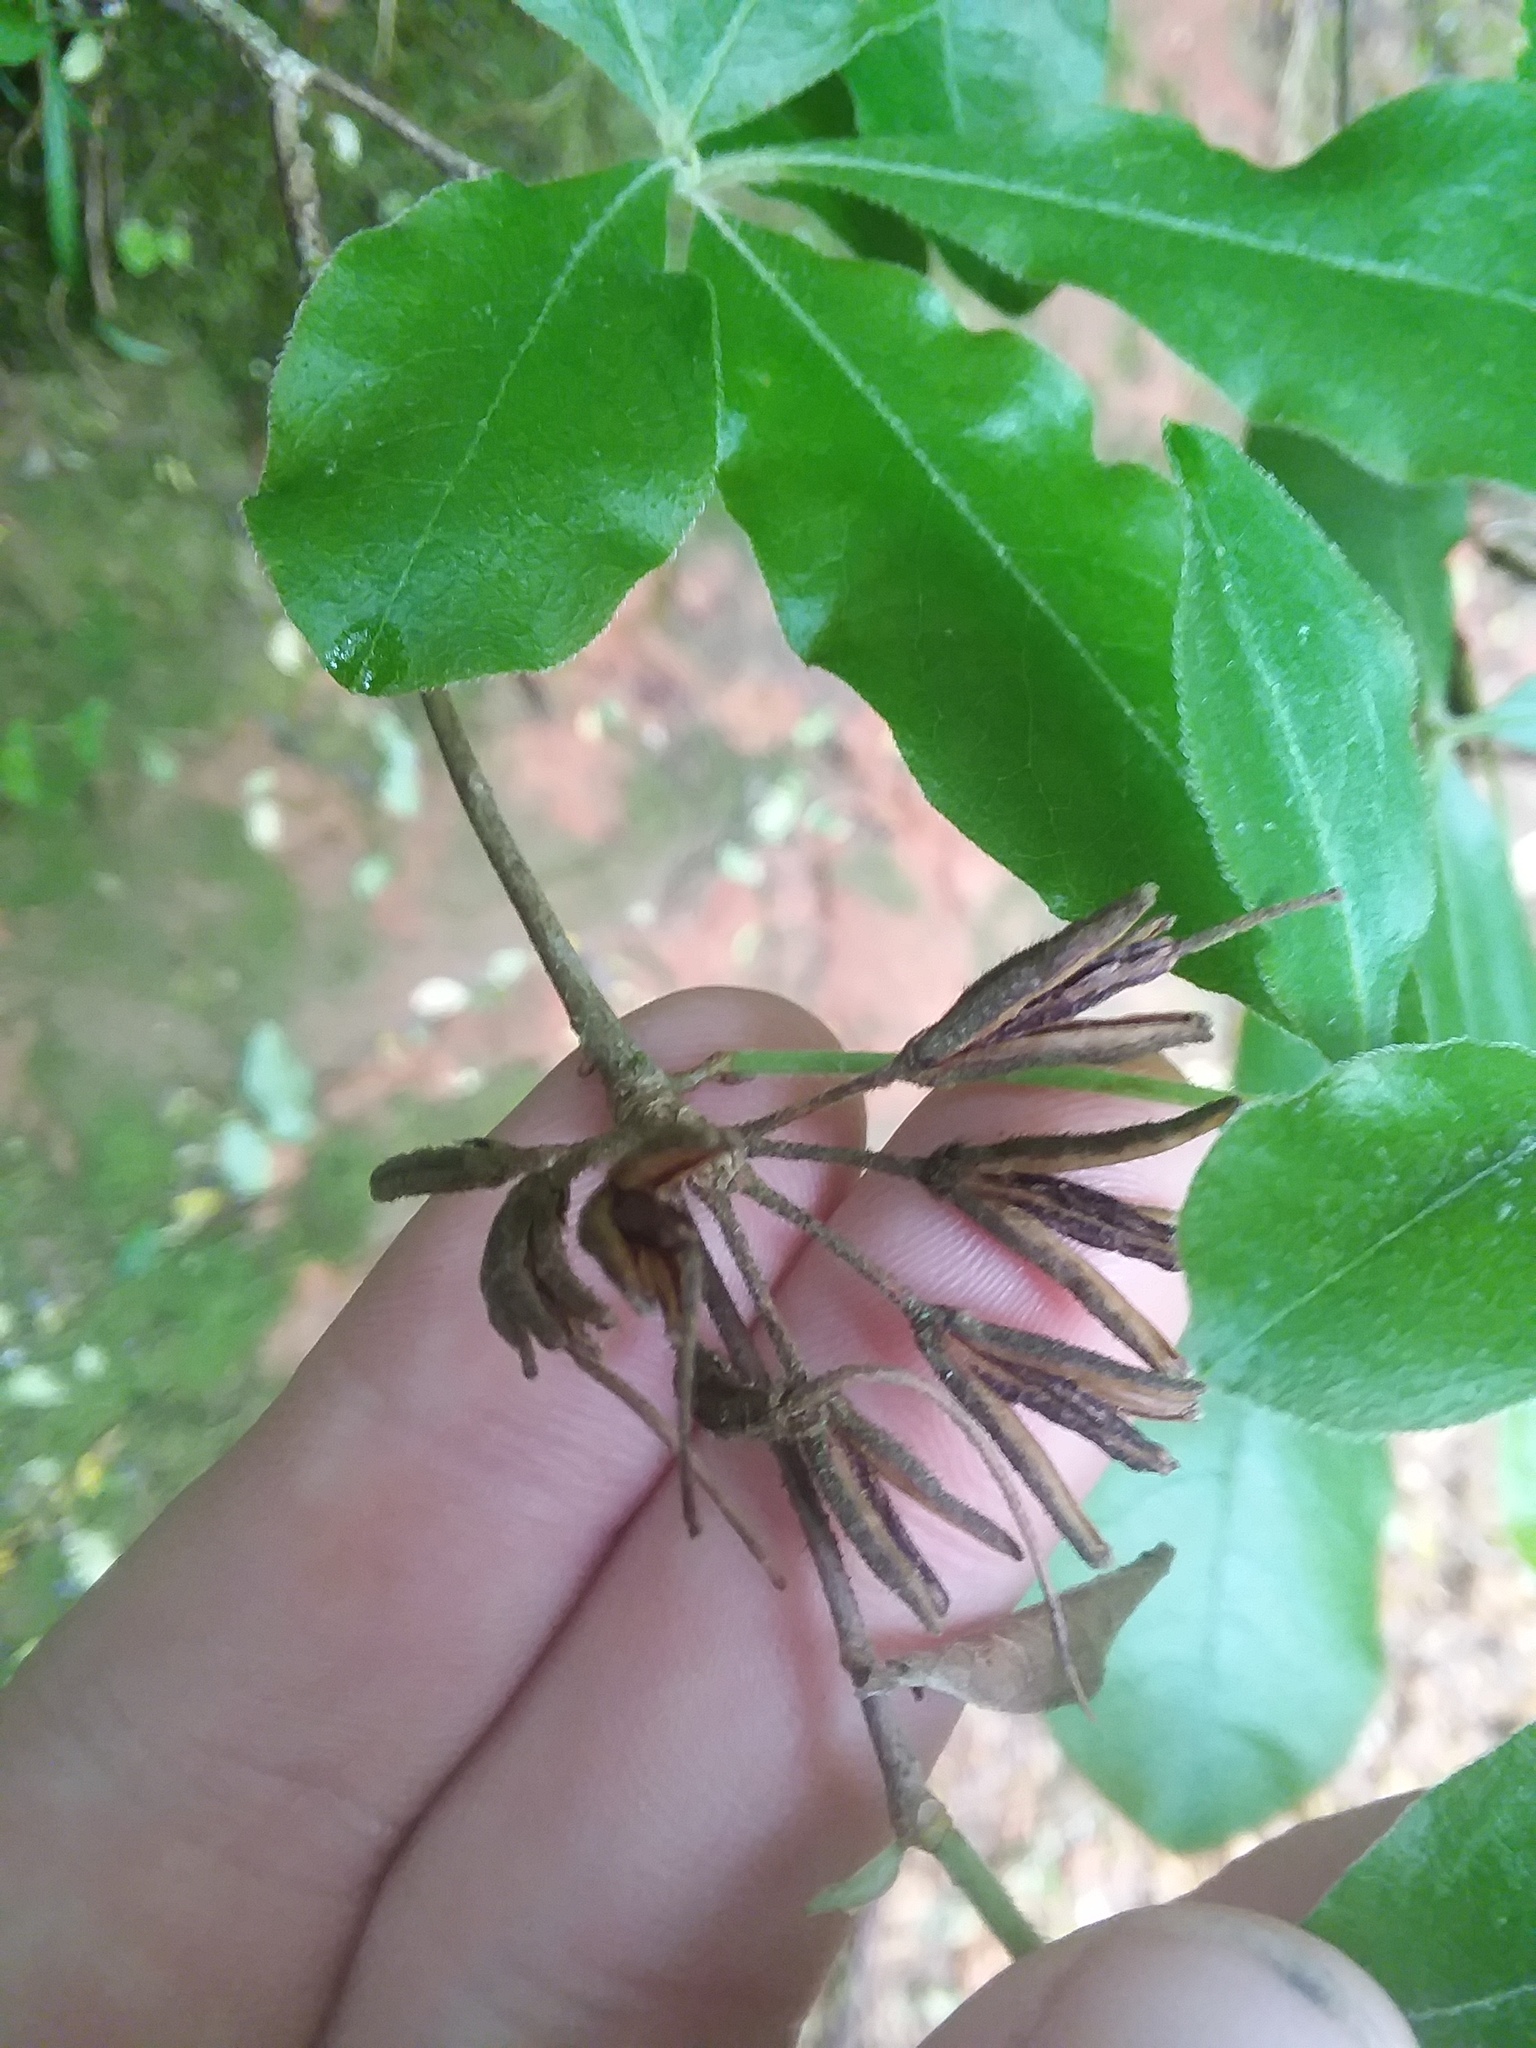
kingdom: Plantae
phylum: Tracheophyta
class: Magnoliopsida
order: Ericales
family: Ericaceae
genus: Rhododendron
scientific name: Rhododendron canescens
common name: Mountain azalea
